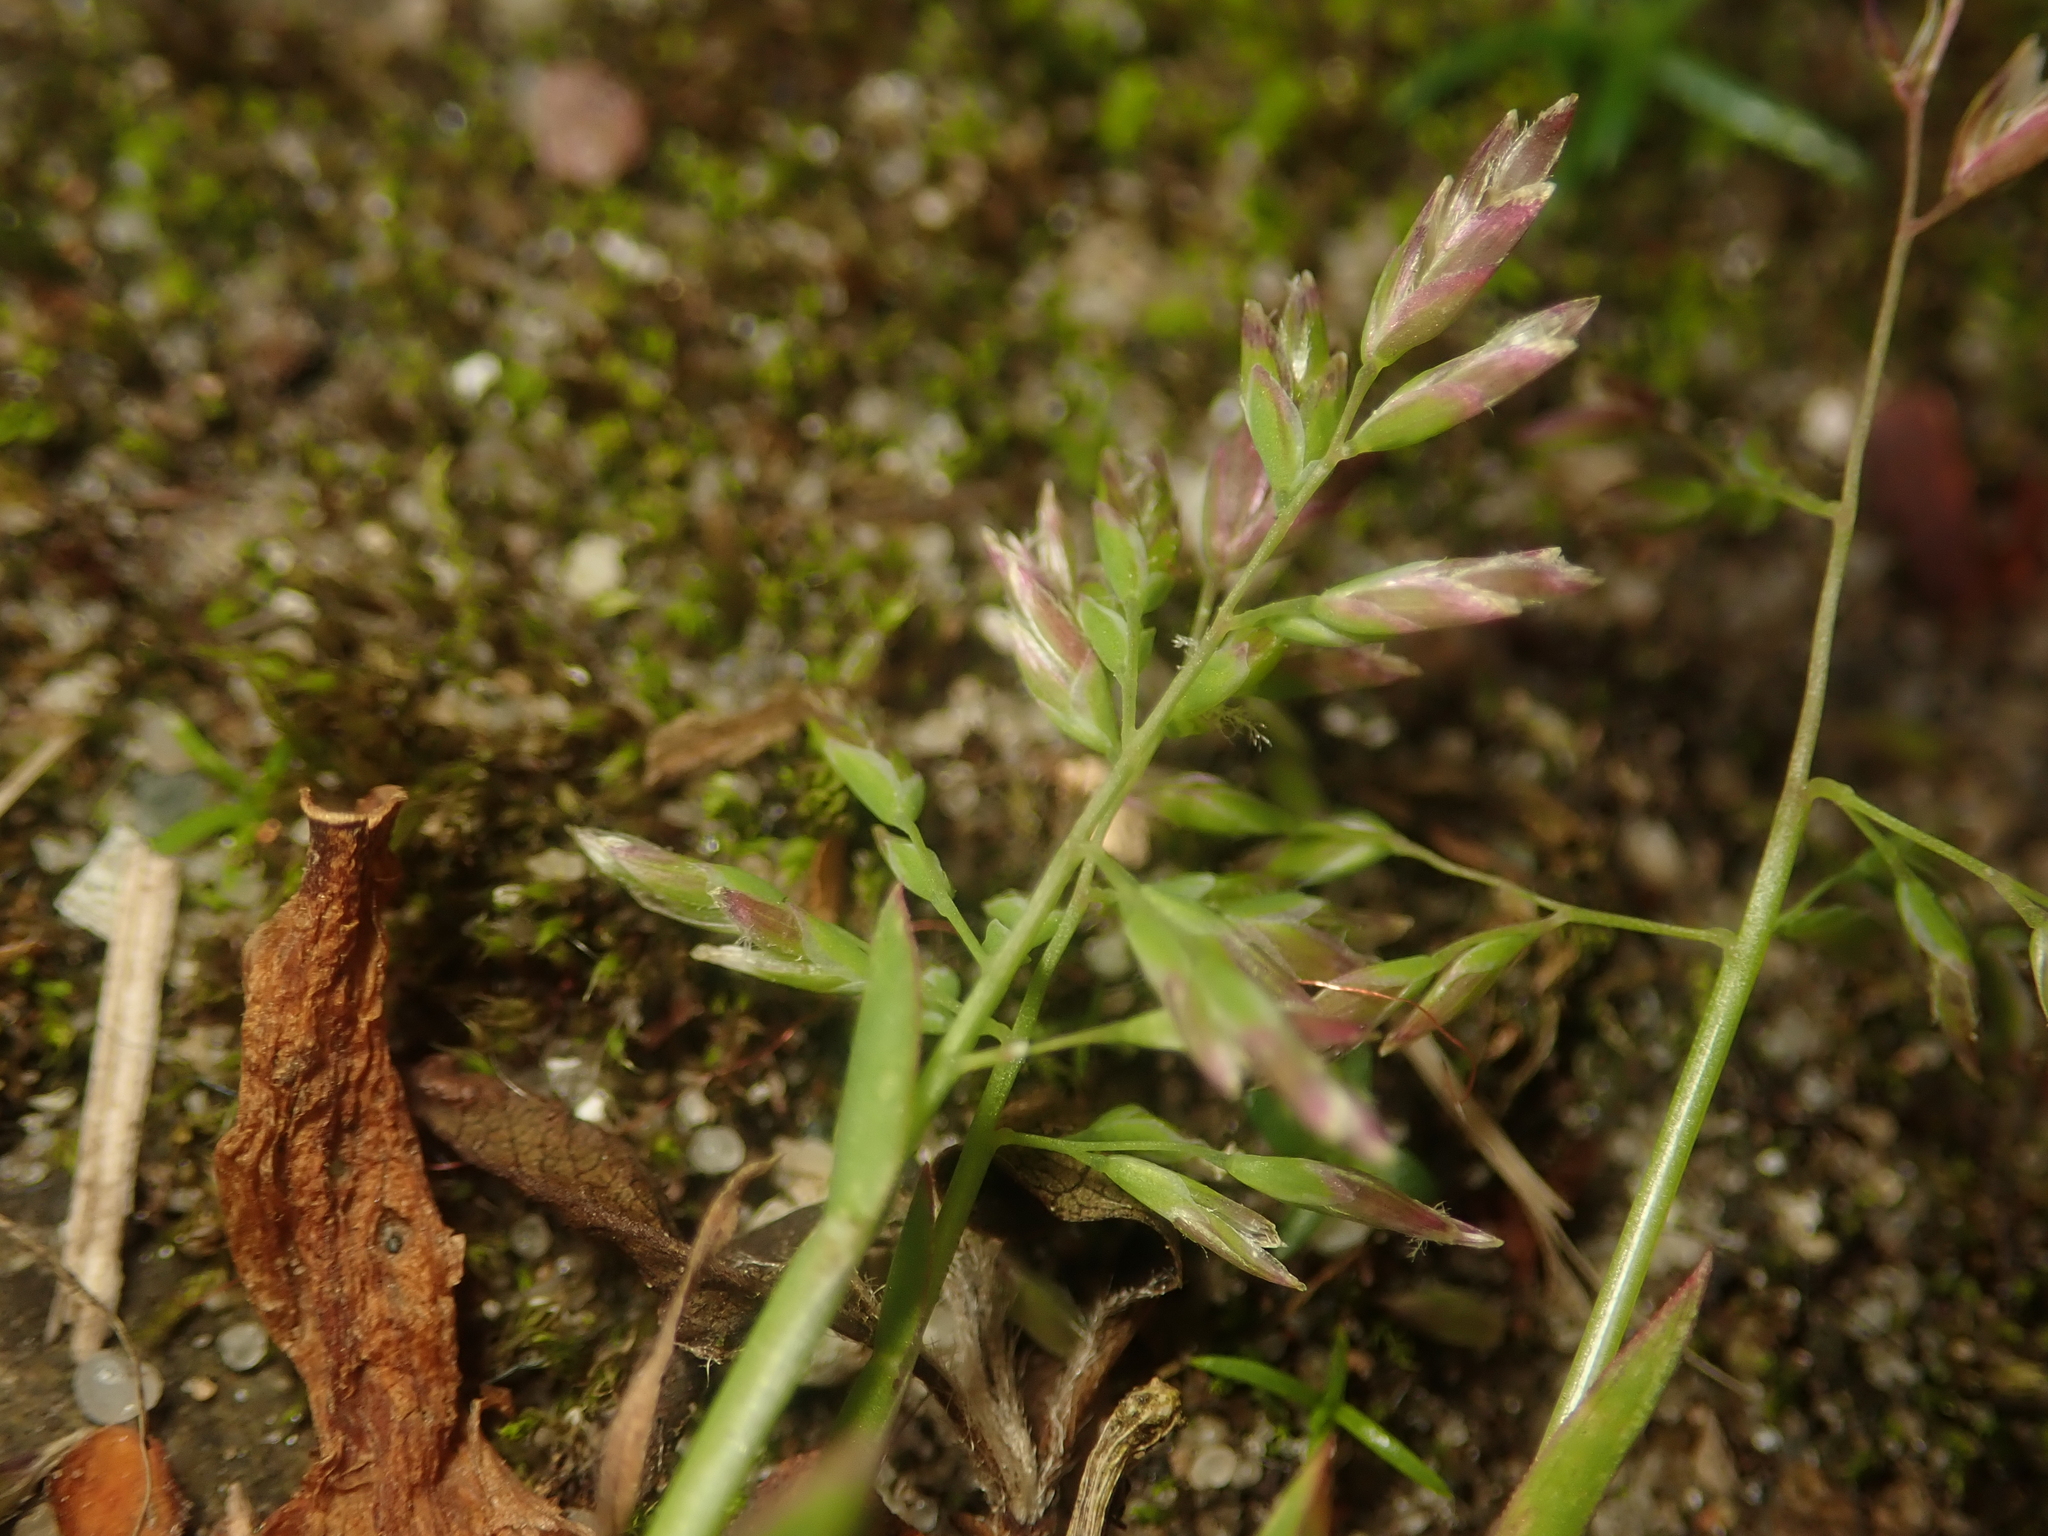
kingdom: Plantae
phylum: Tracheophyta
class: Liliopsida
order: Poales
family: Poaceae
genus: Poa
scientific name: Poa annua
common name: Annual bluegrass
